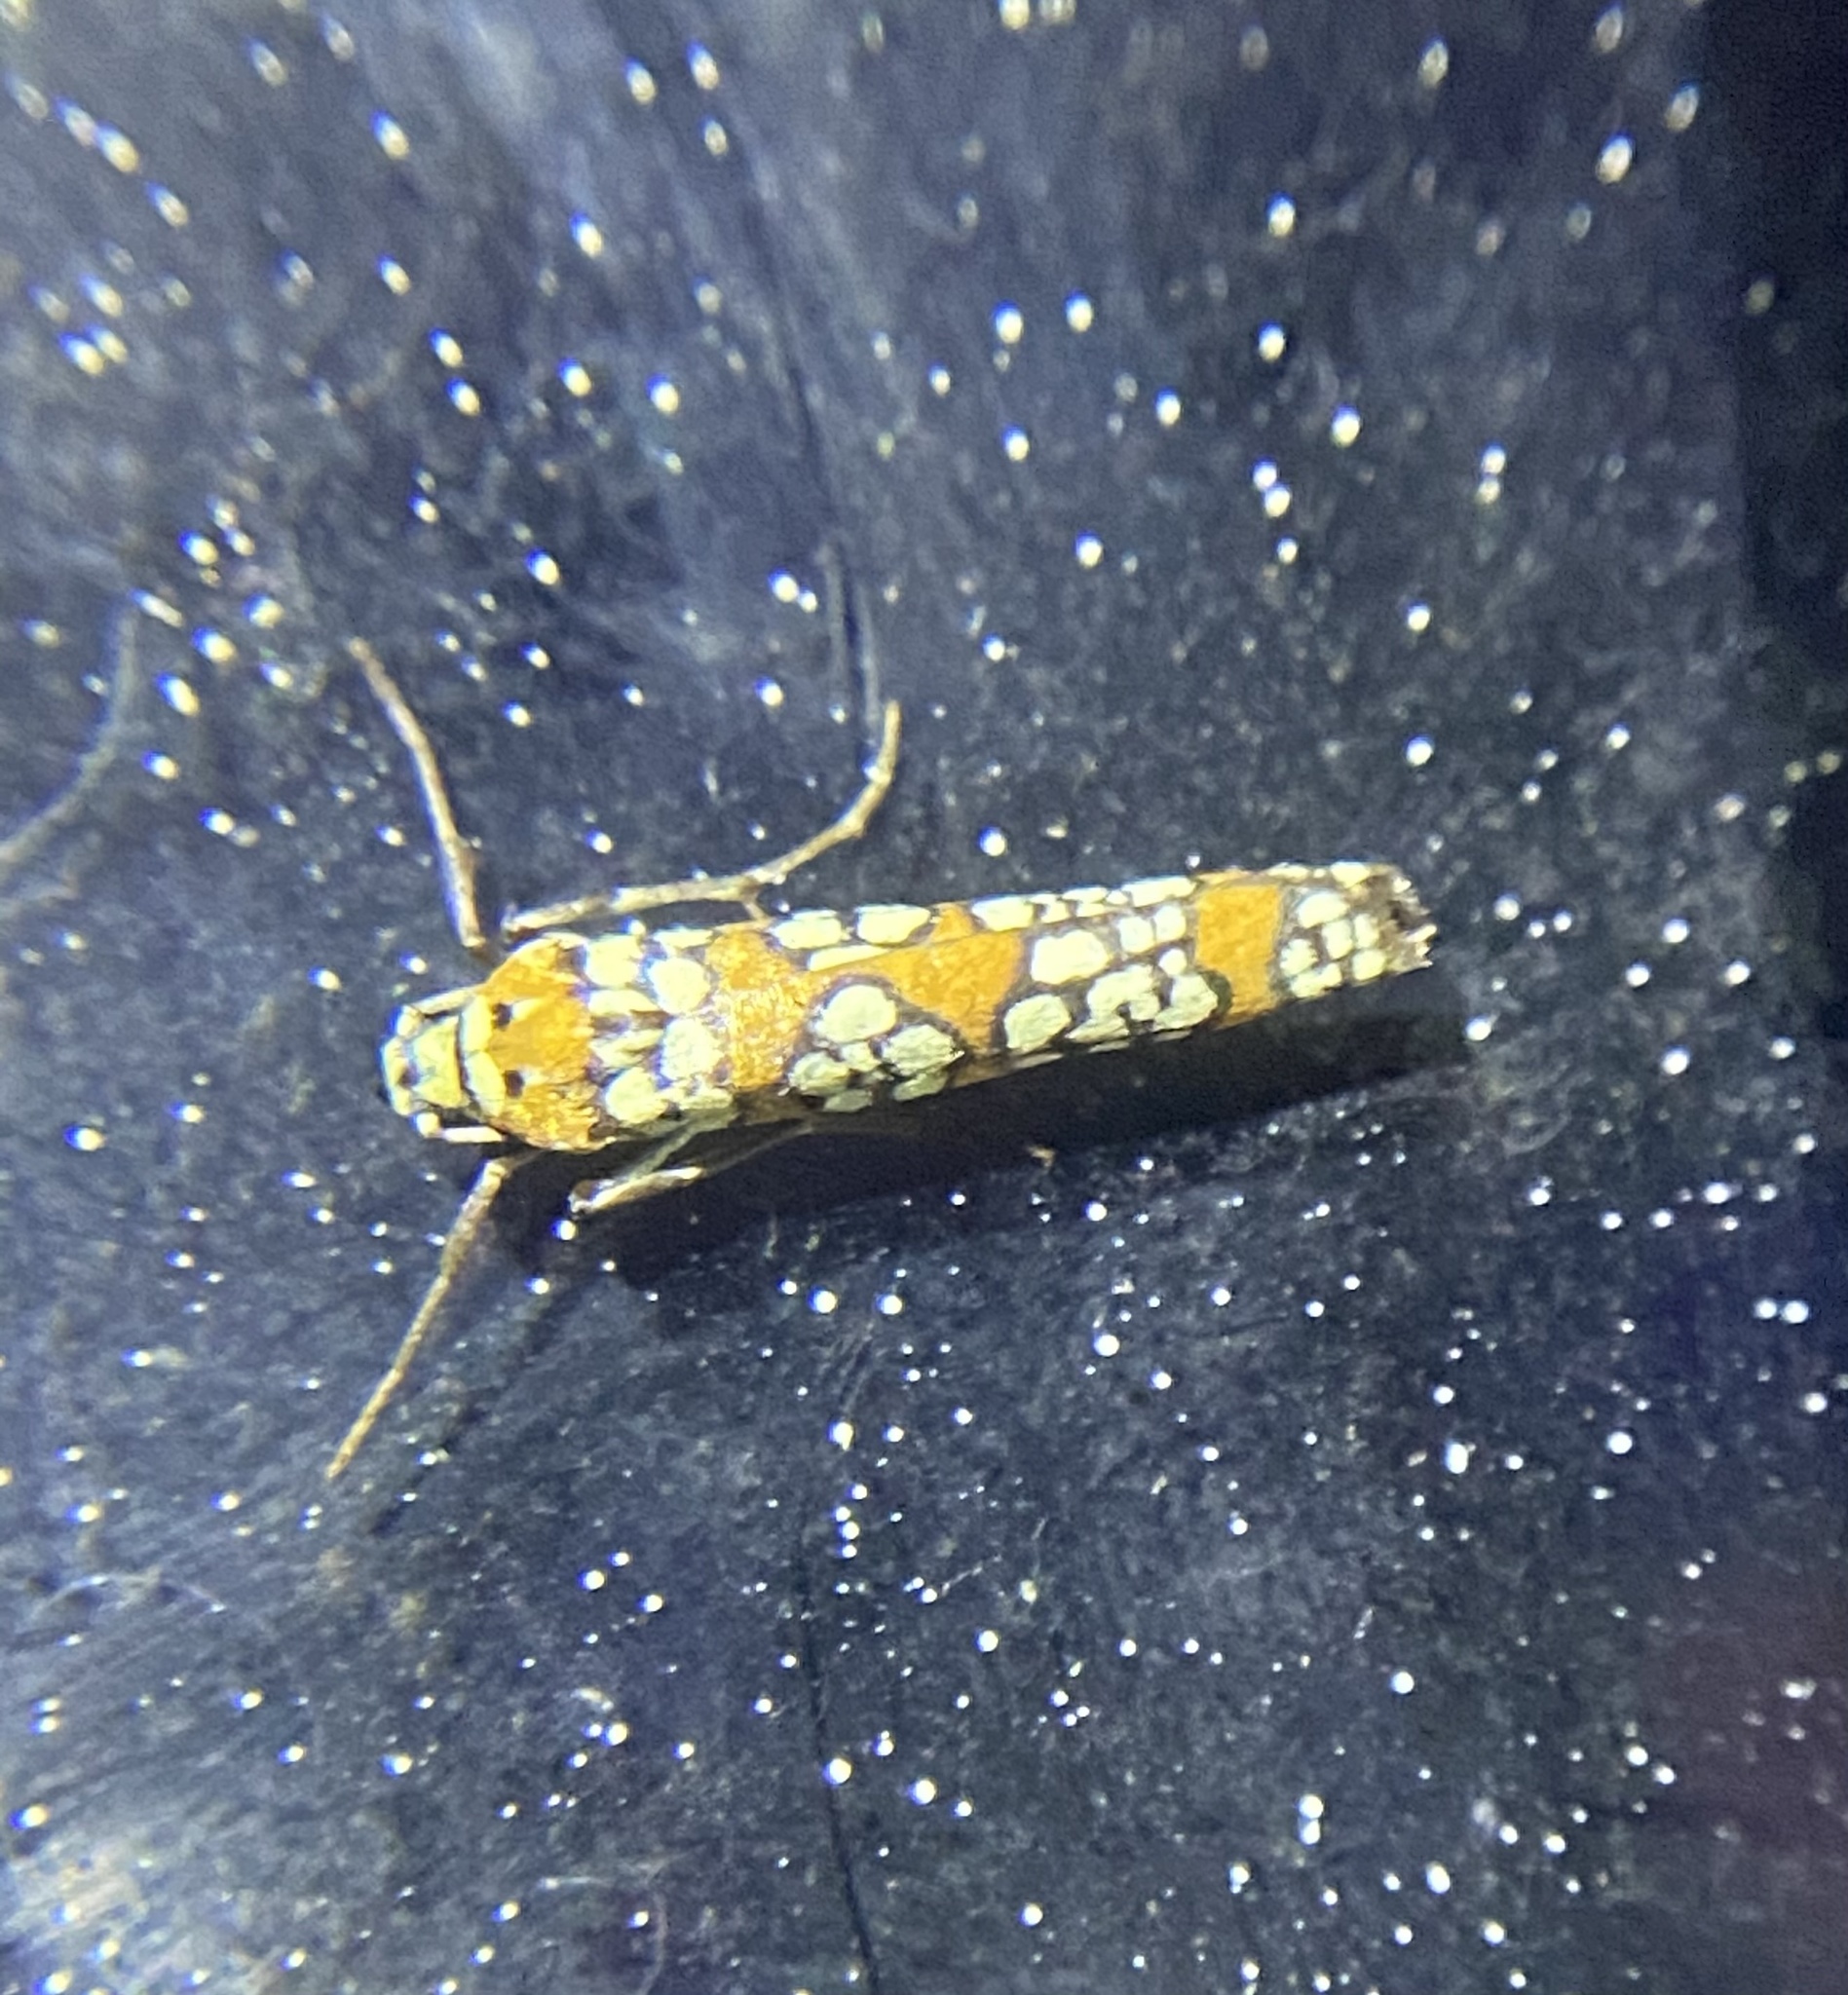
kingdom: Animalia
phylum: Arthropoda
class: Insecta
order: Lepidoptera
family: Attevidae
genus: Atteva
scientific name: Atteva punctella
